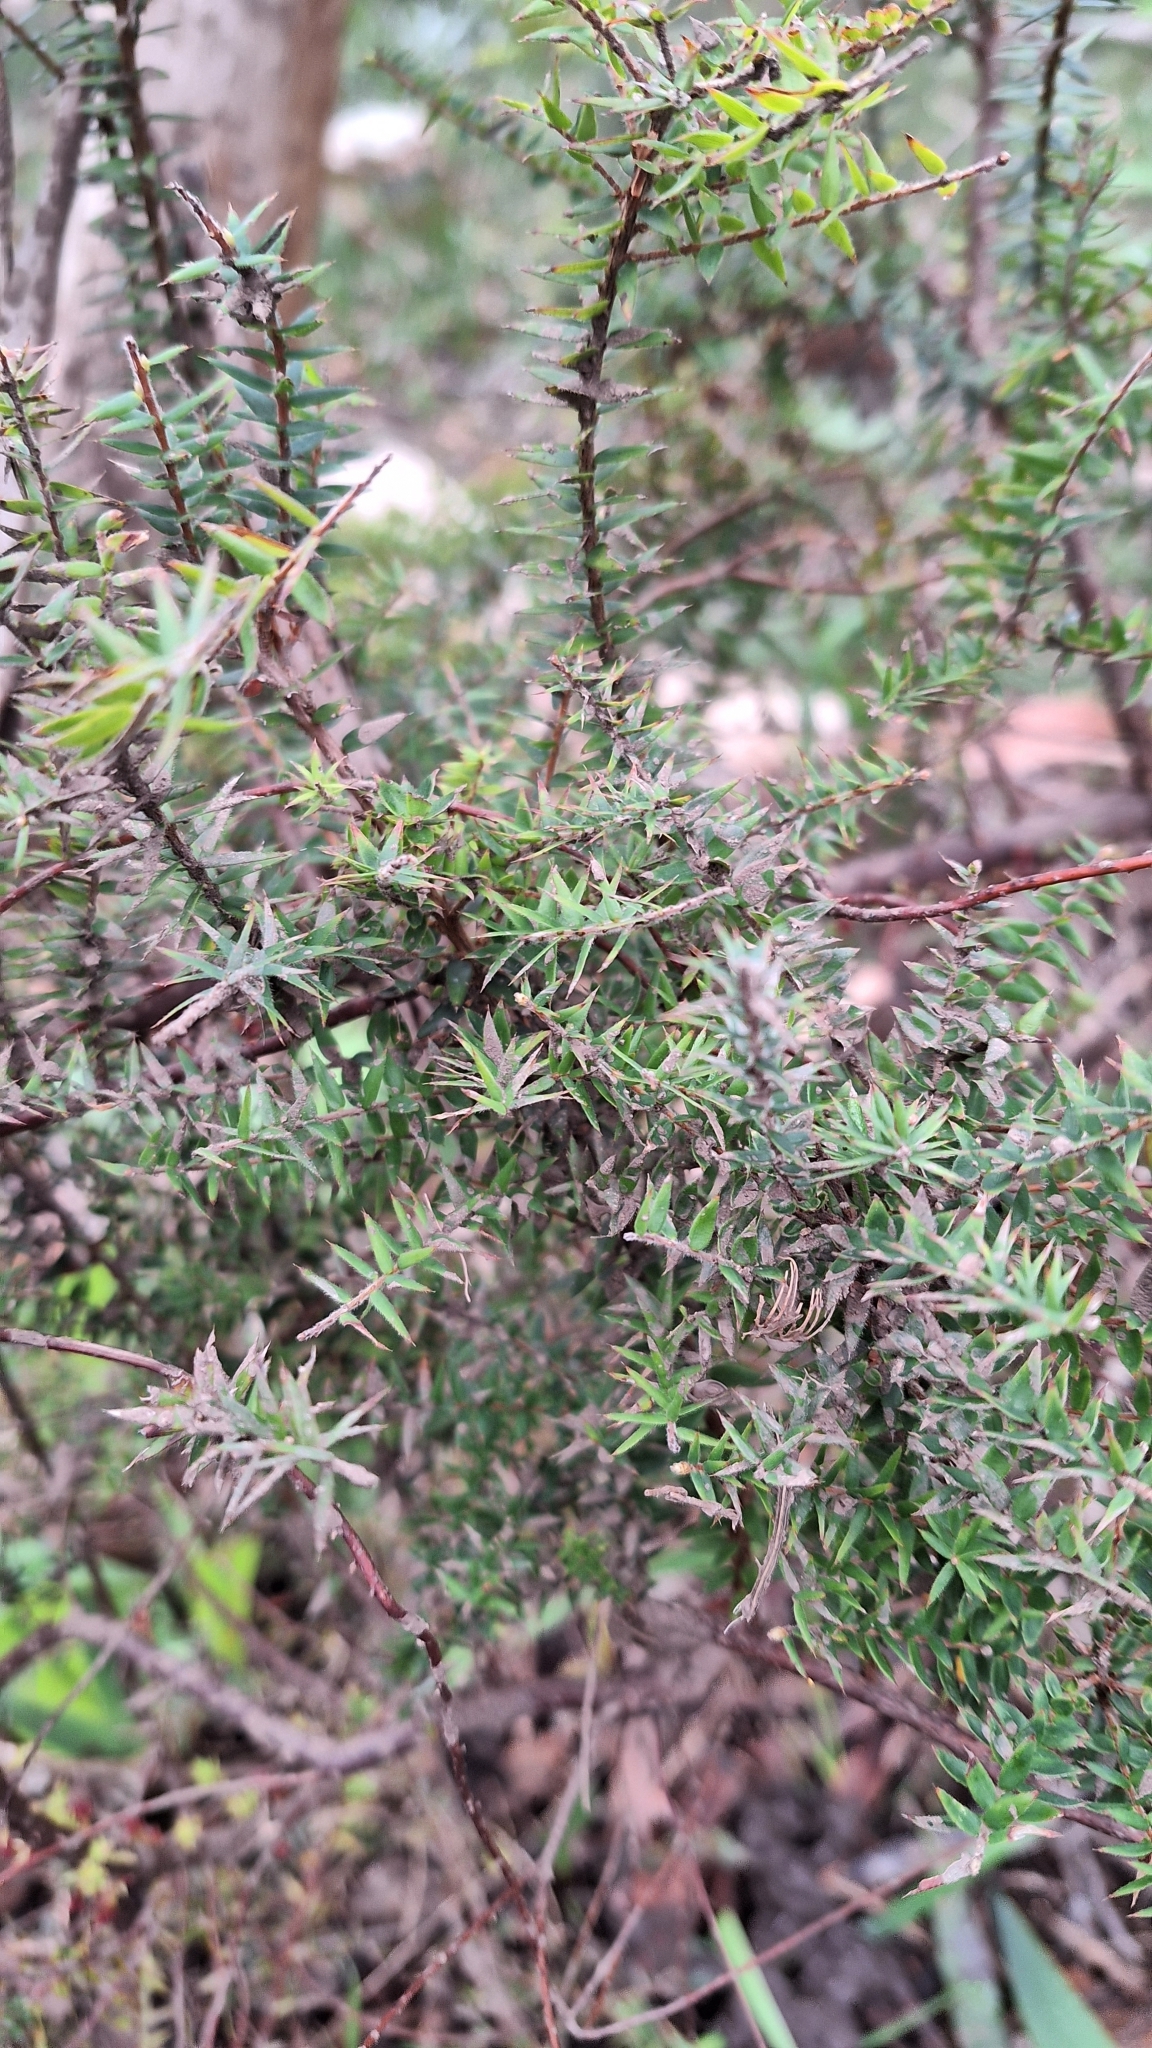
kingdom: Plantae
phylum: Tracheophyta
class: Magnoliopsida
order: Ericales
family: Ericaceae
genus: Acrotriche
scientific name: Acrotriche fasciculiflora
